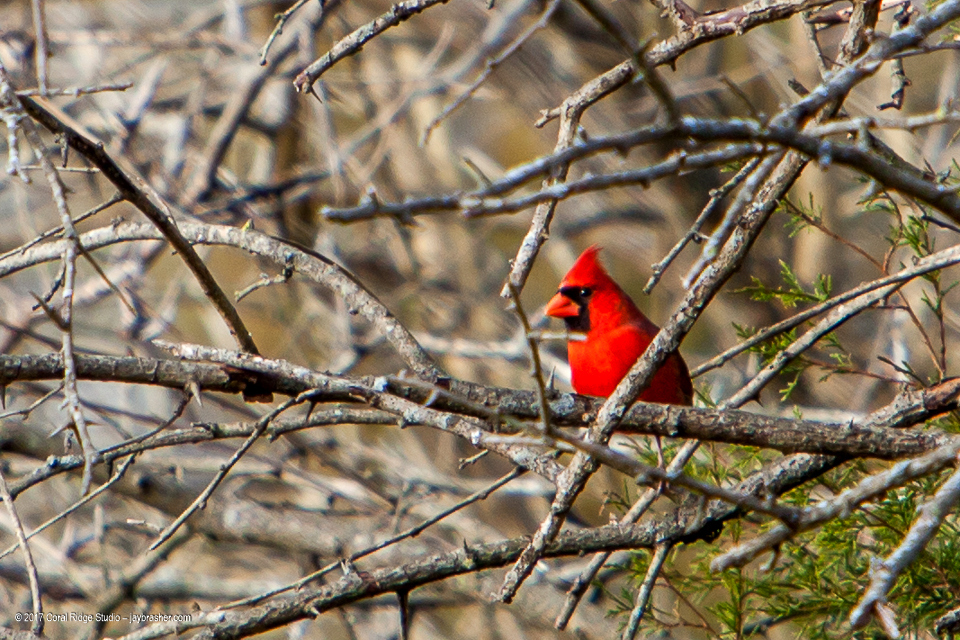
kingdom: Animalia
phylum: Chordata
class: Aves
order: Passeriformes
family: Cardinalidae
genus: Cardinalis
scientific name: Cardinalis cardinalis
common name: Northern cardinal
